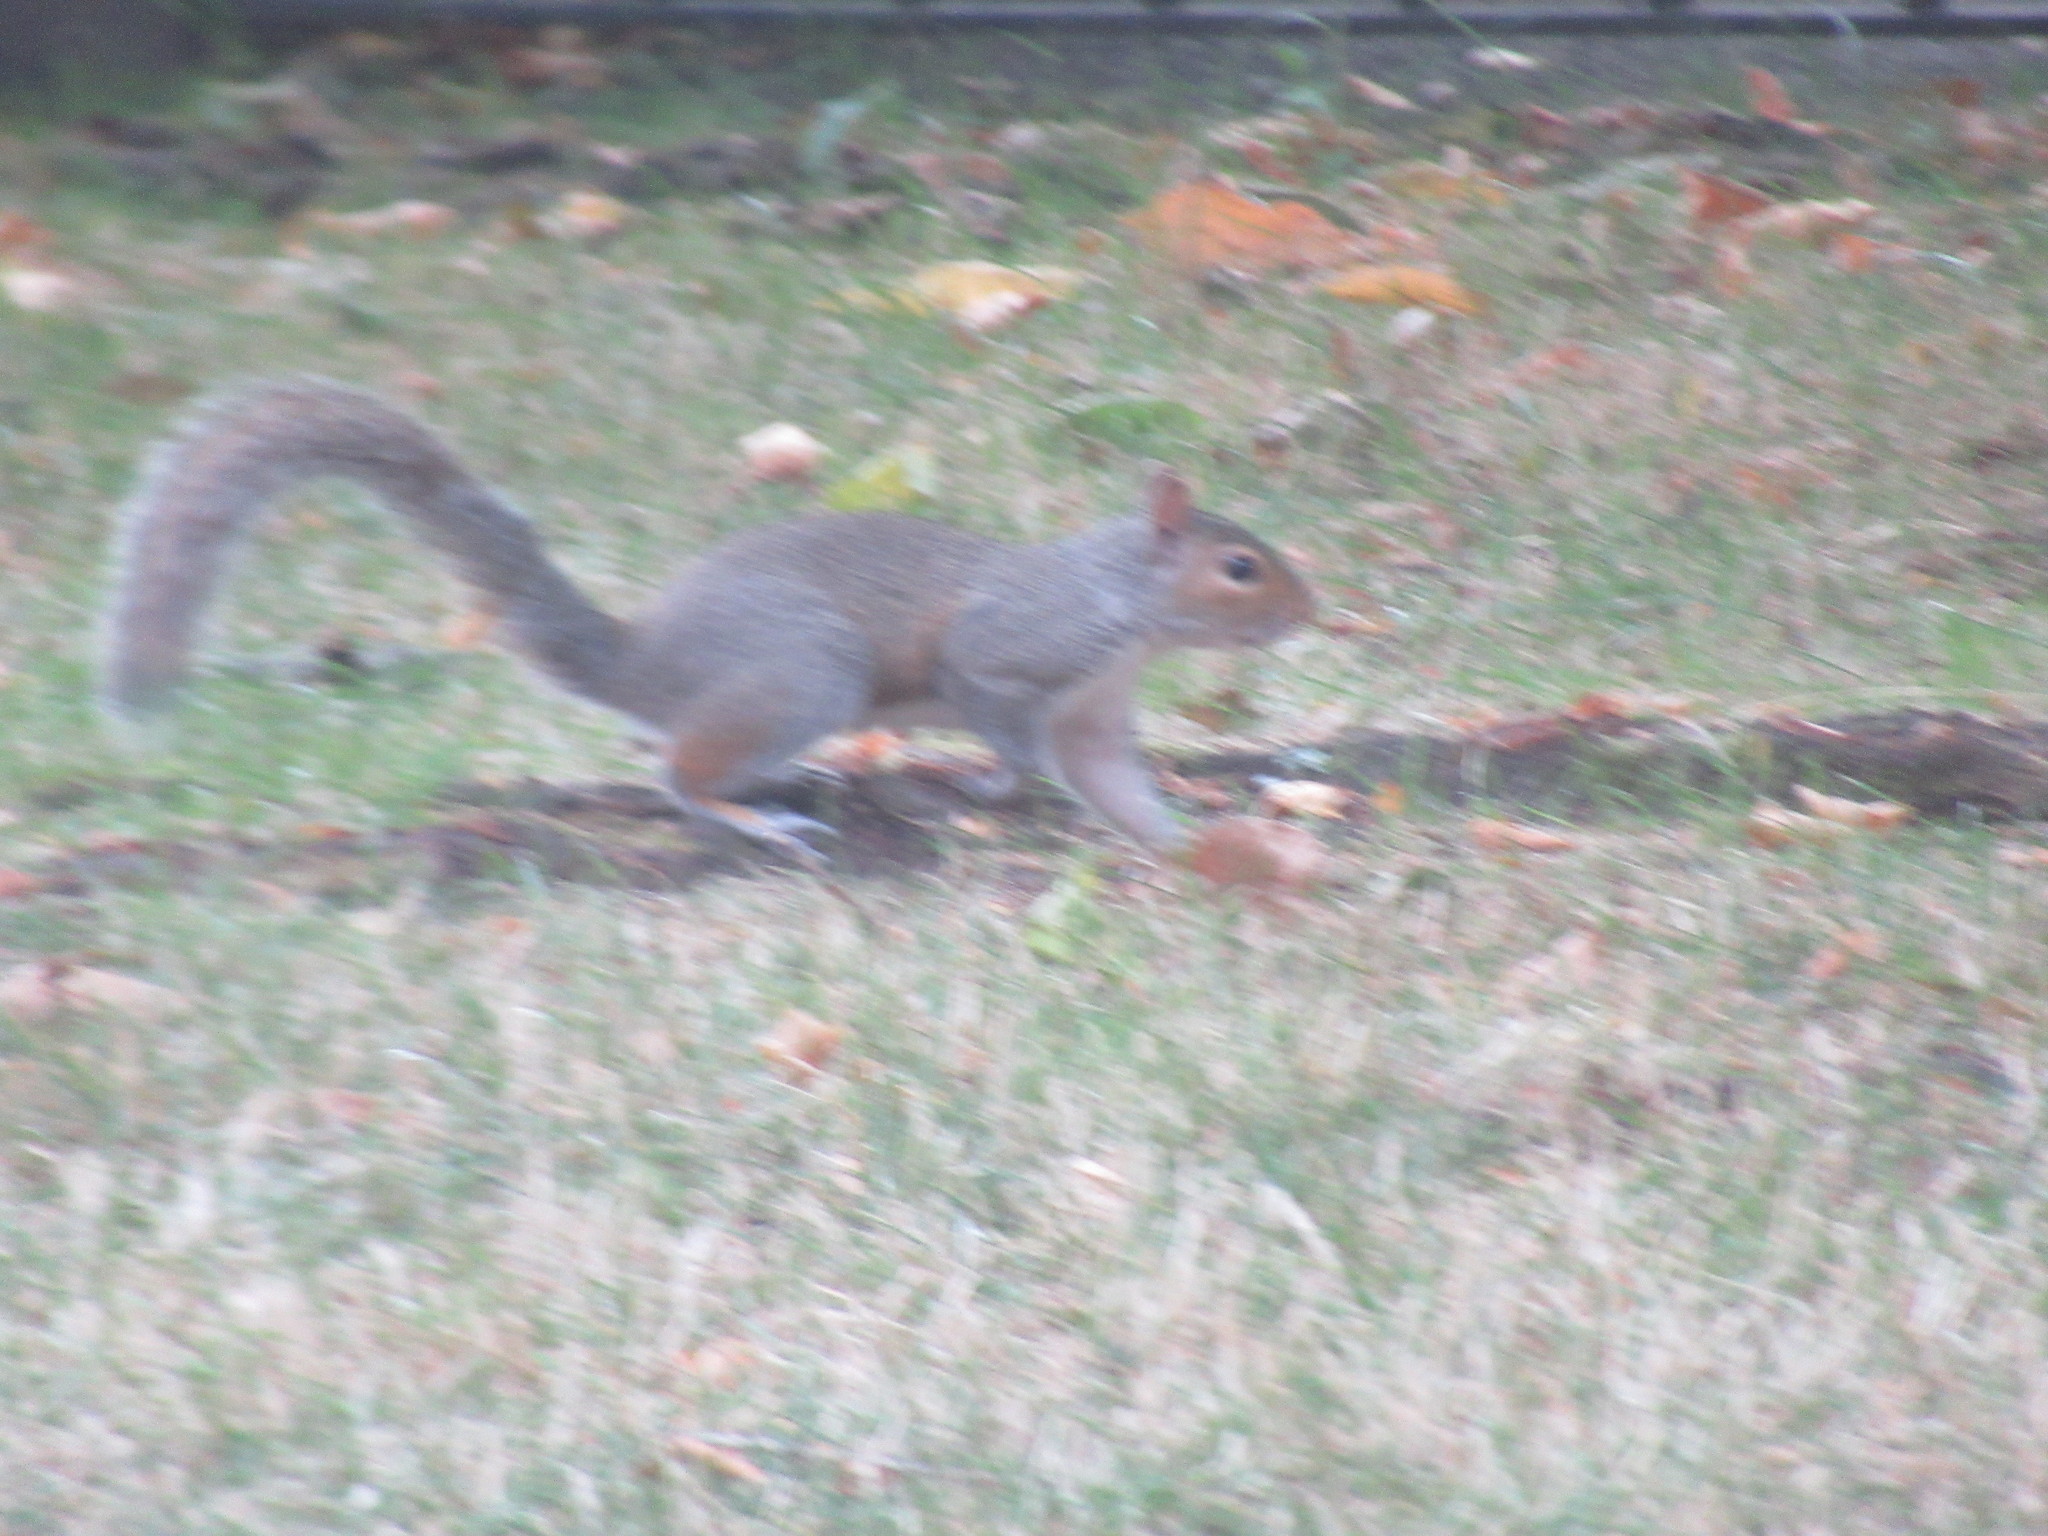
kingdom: Animalia
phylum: Chordata
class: Mammalia
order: Rodentia
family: Sciuridae
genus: Sciurus
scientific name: Sciurus carolinensis
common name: Eastern gray squirrel
